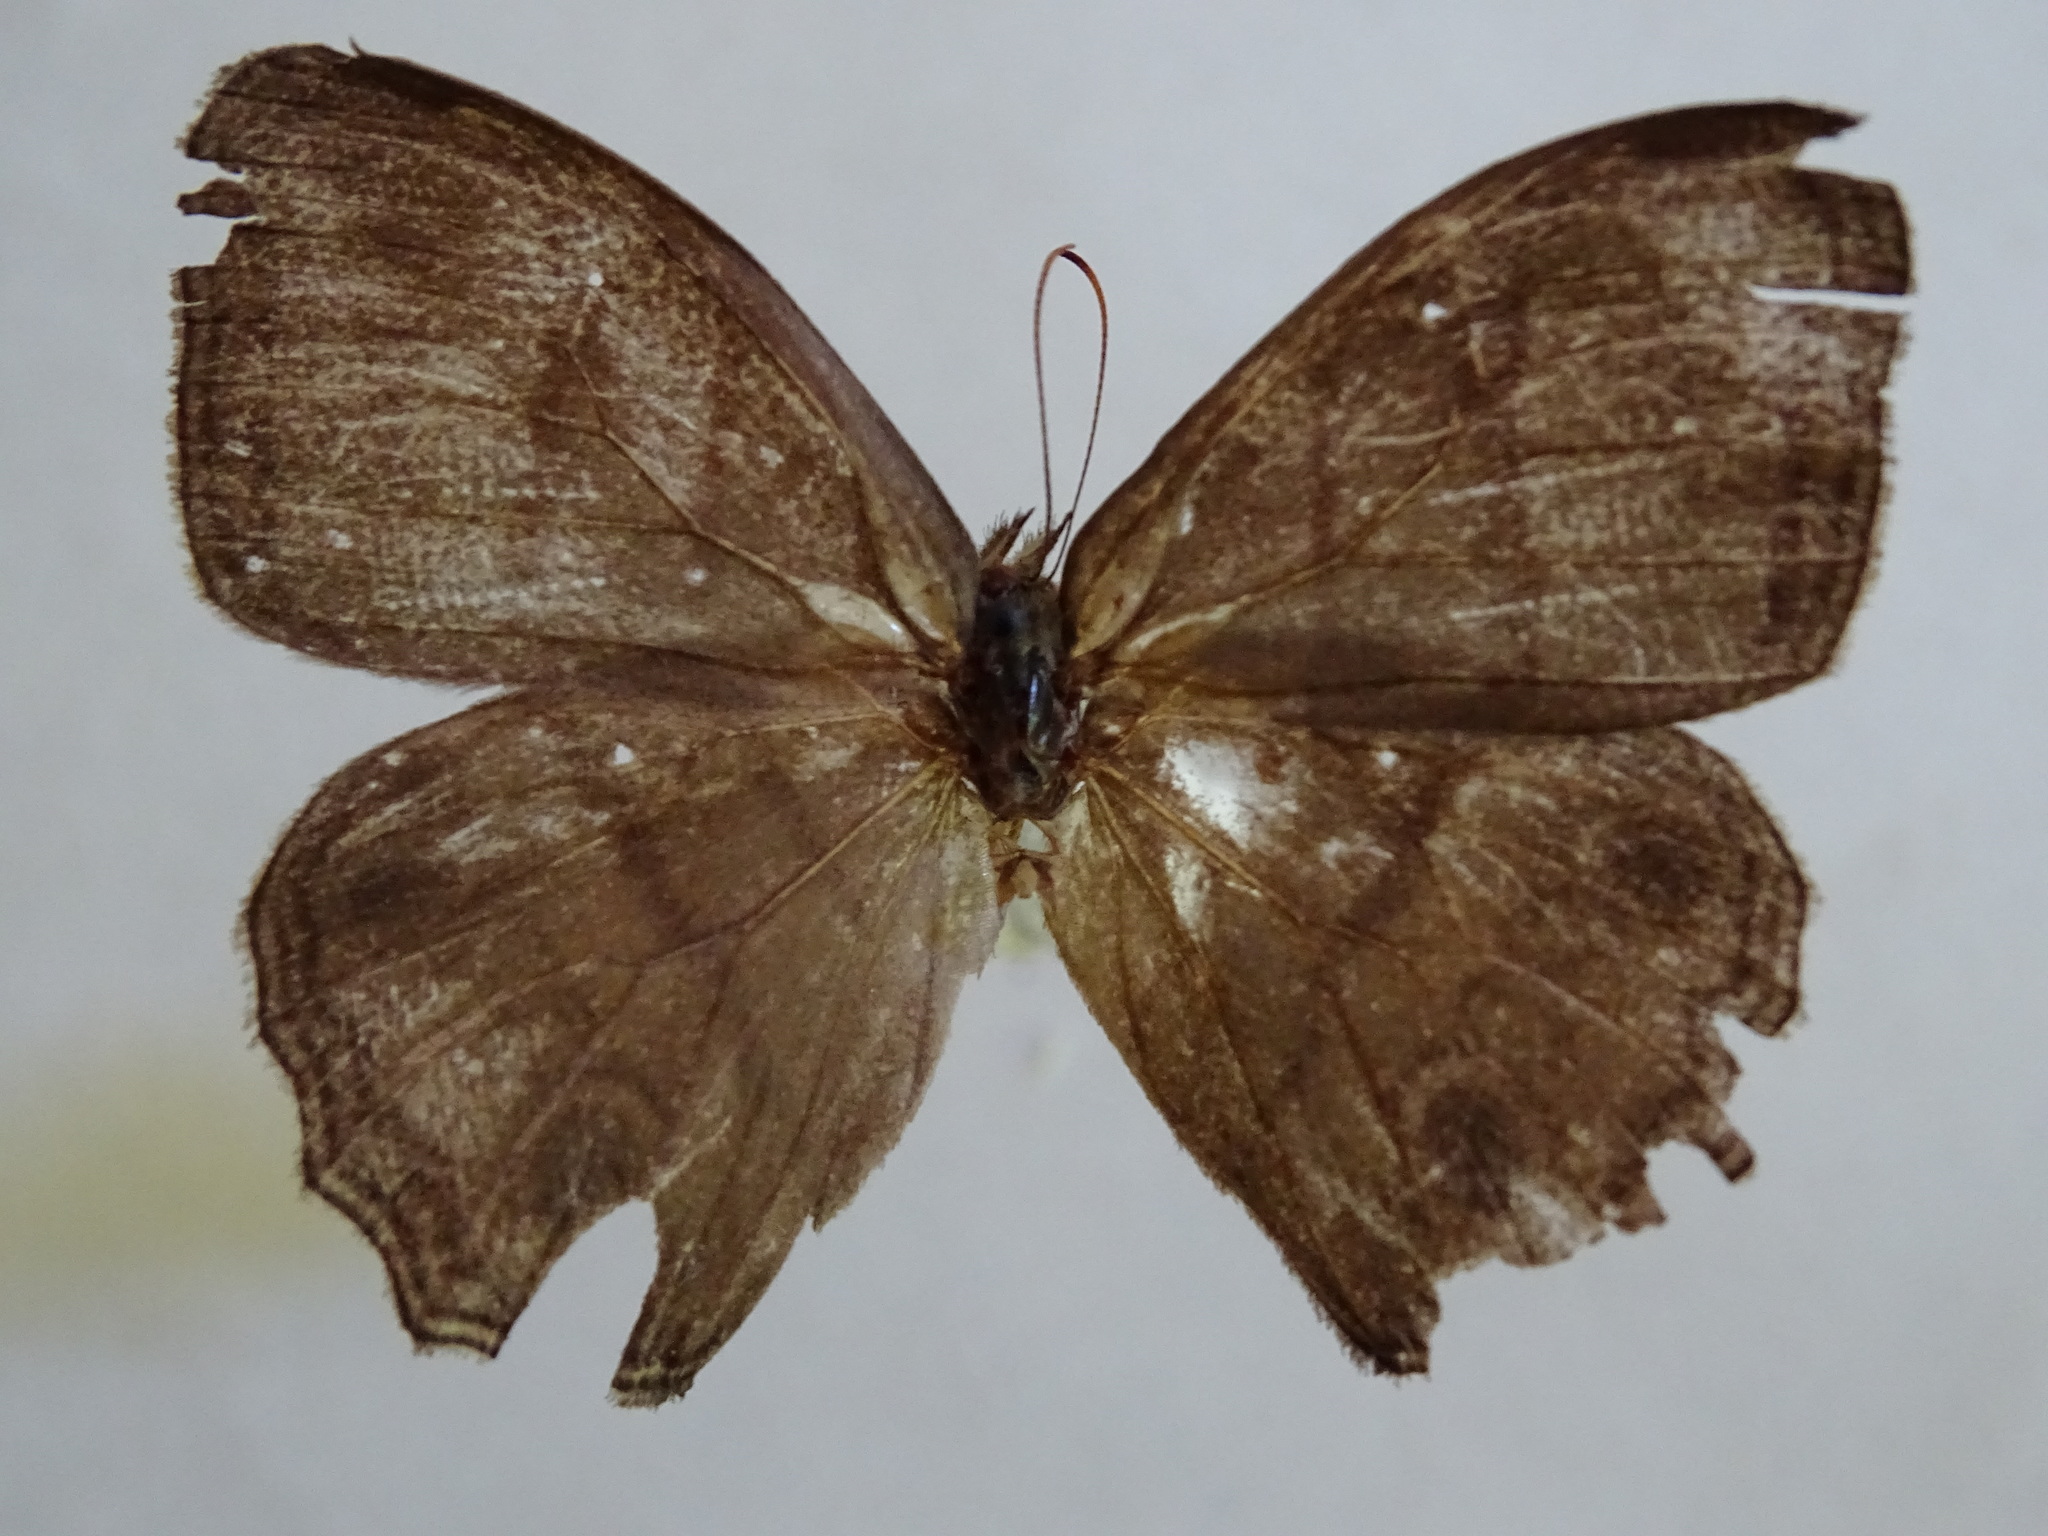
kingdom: Animalia
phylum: Arthropoda
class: Insecta
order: Lepidoptera
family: Nymphalidae
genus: Magneuptychia
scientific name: Magneuptychia libye
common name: Blue-gray satyr
